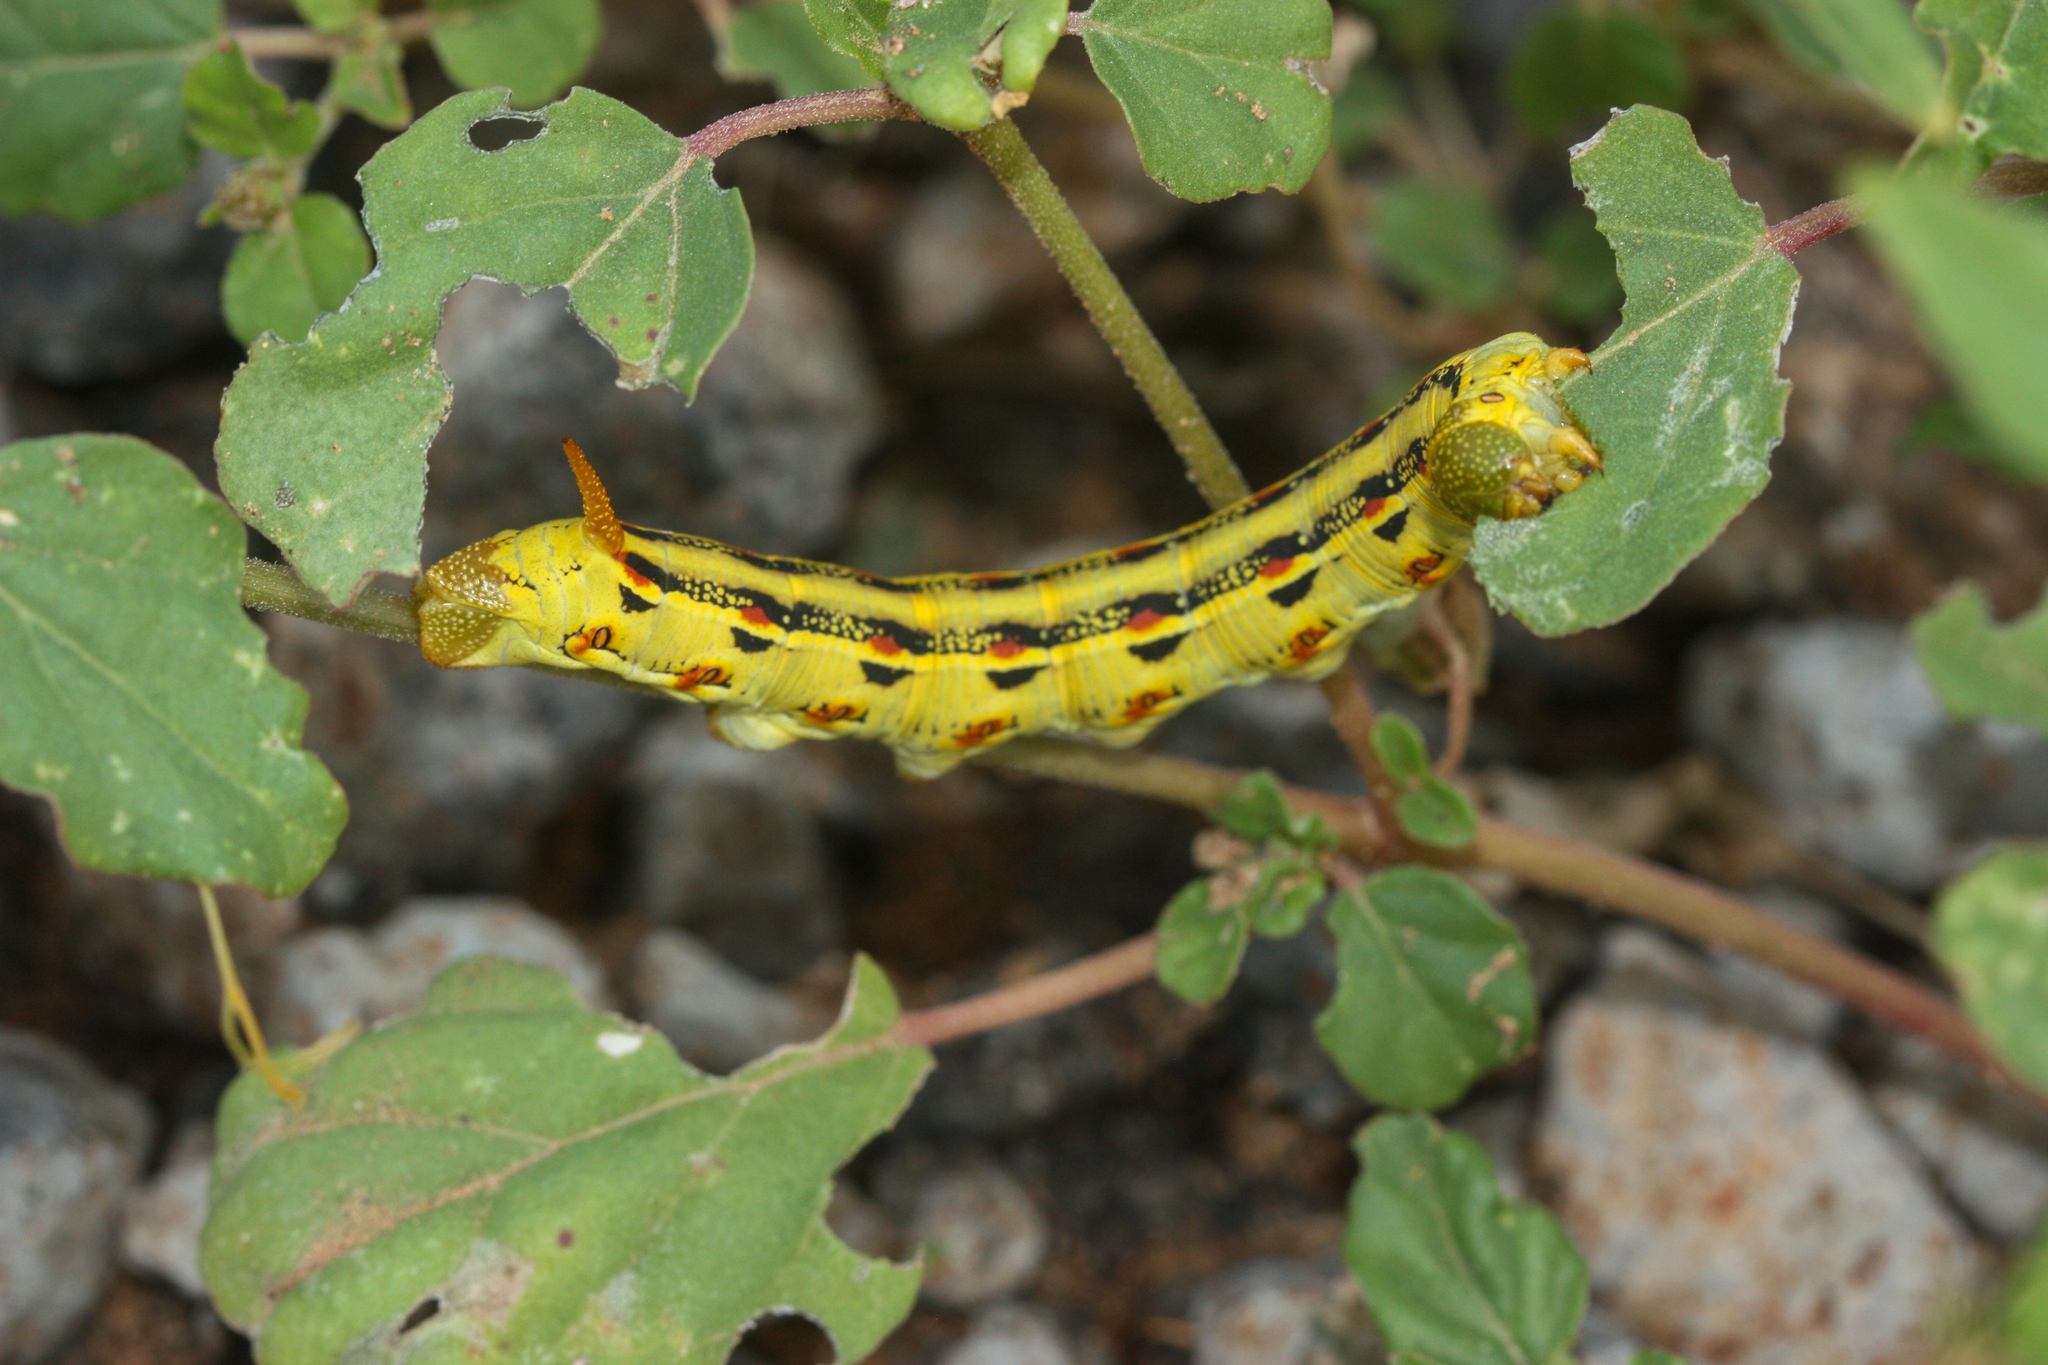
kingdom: Animalia
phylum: Arthropoda
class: Insecta
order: Lepidoptera
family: Sphingidae
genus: Hyles
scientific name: Hyles lineata
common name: White-lined sphinx
